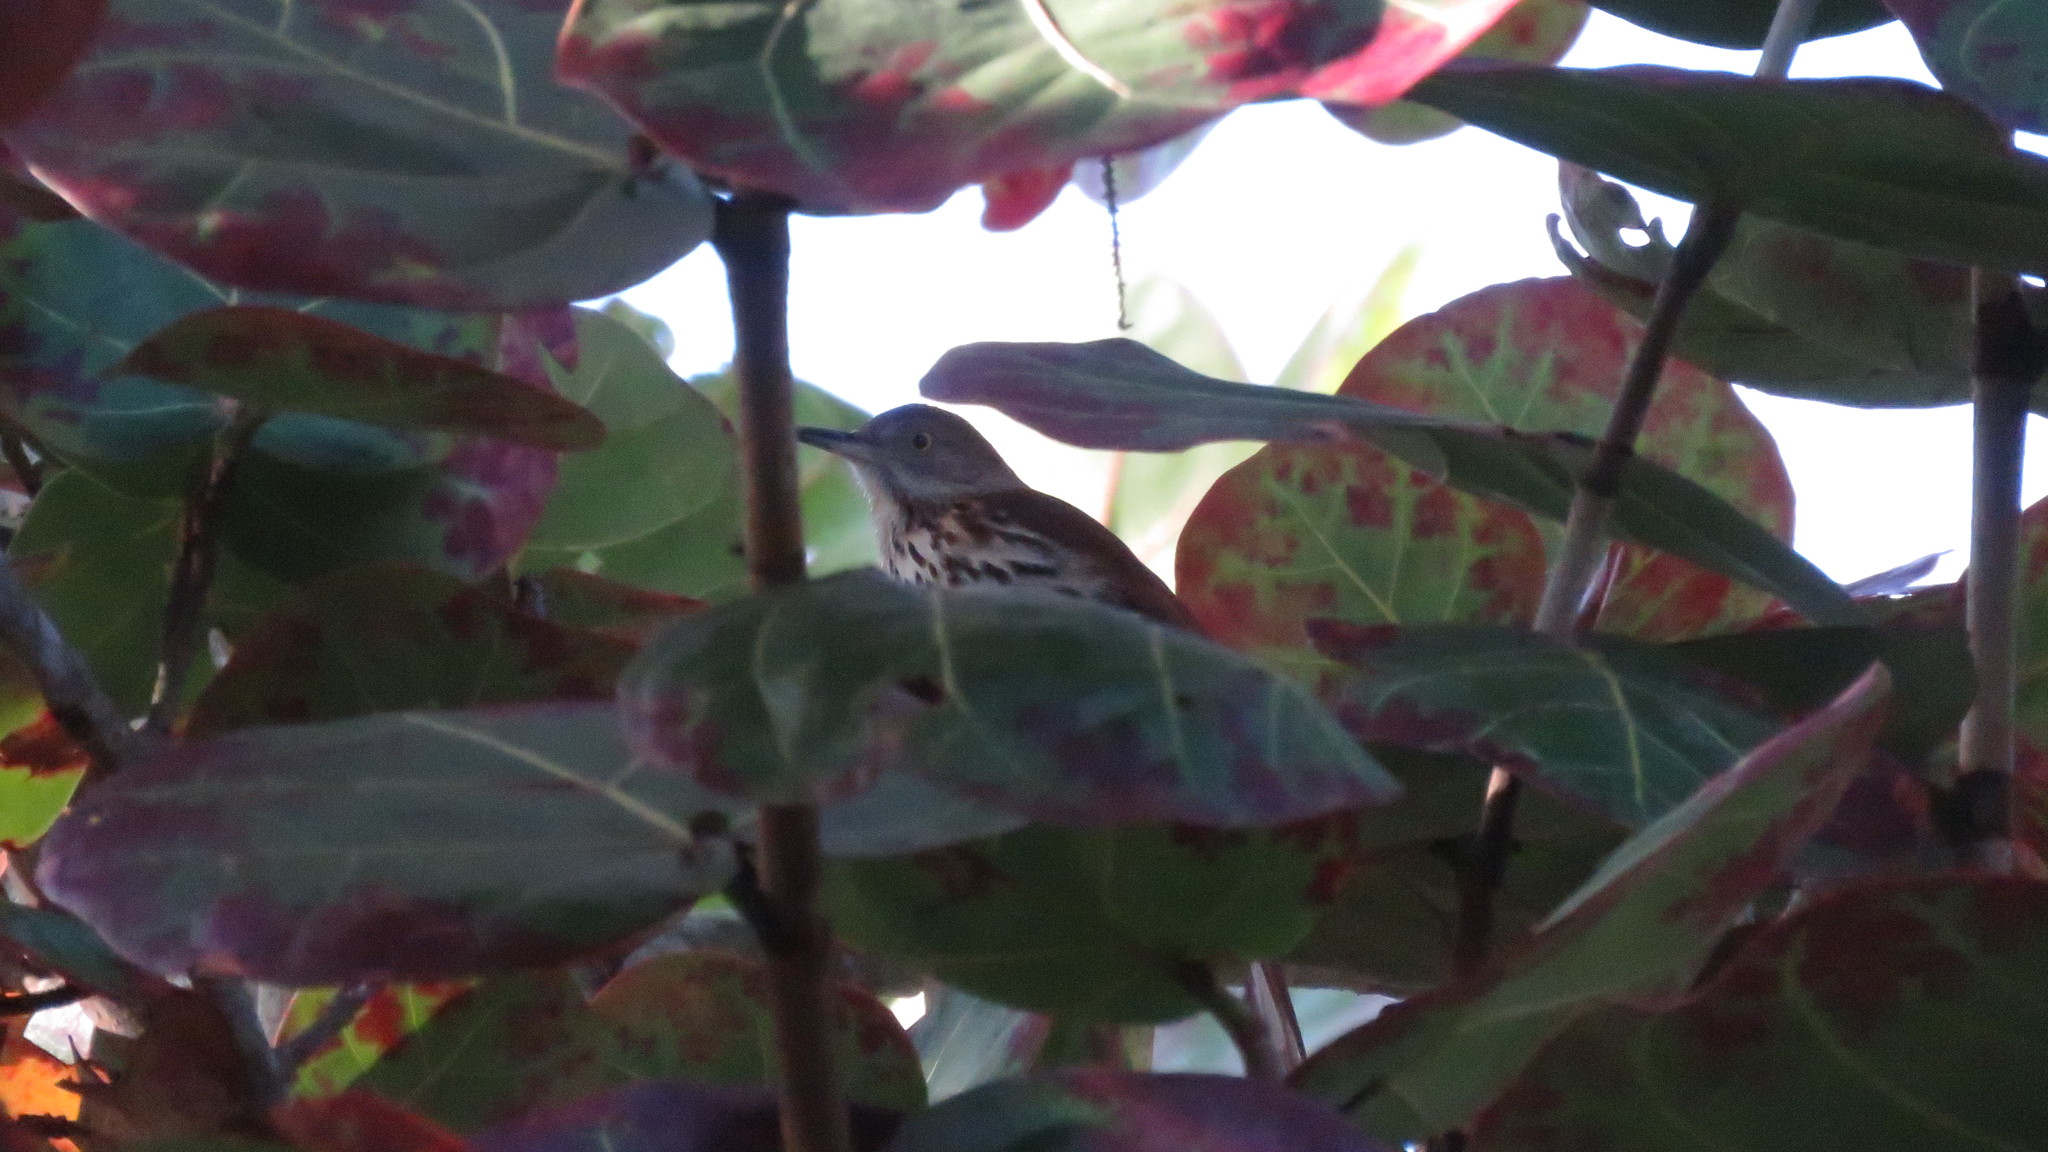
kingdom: Animalia
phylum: Chordata
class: Aves
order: Passeriformes
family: Mimidae
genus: Toxostoma
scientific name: Toxostoma rufum
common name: Brown thrasher
